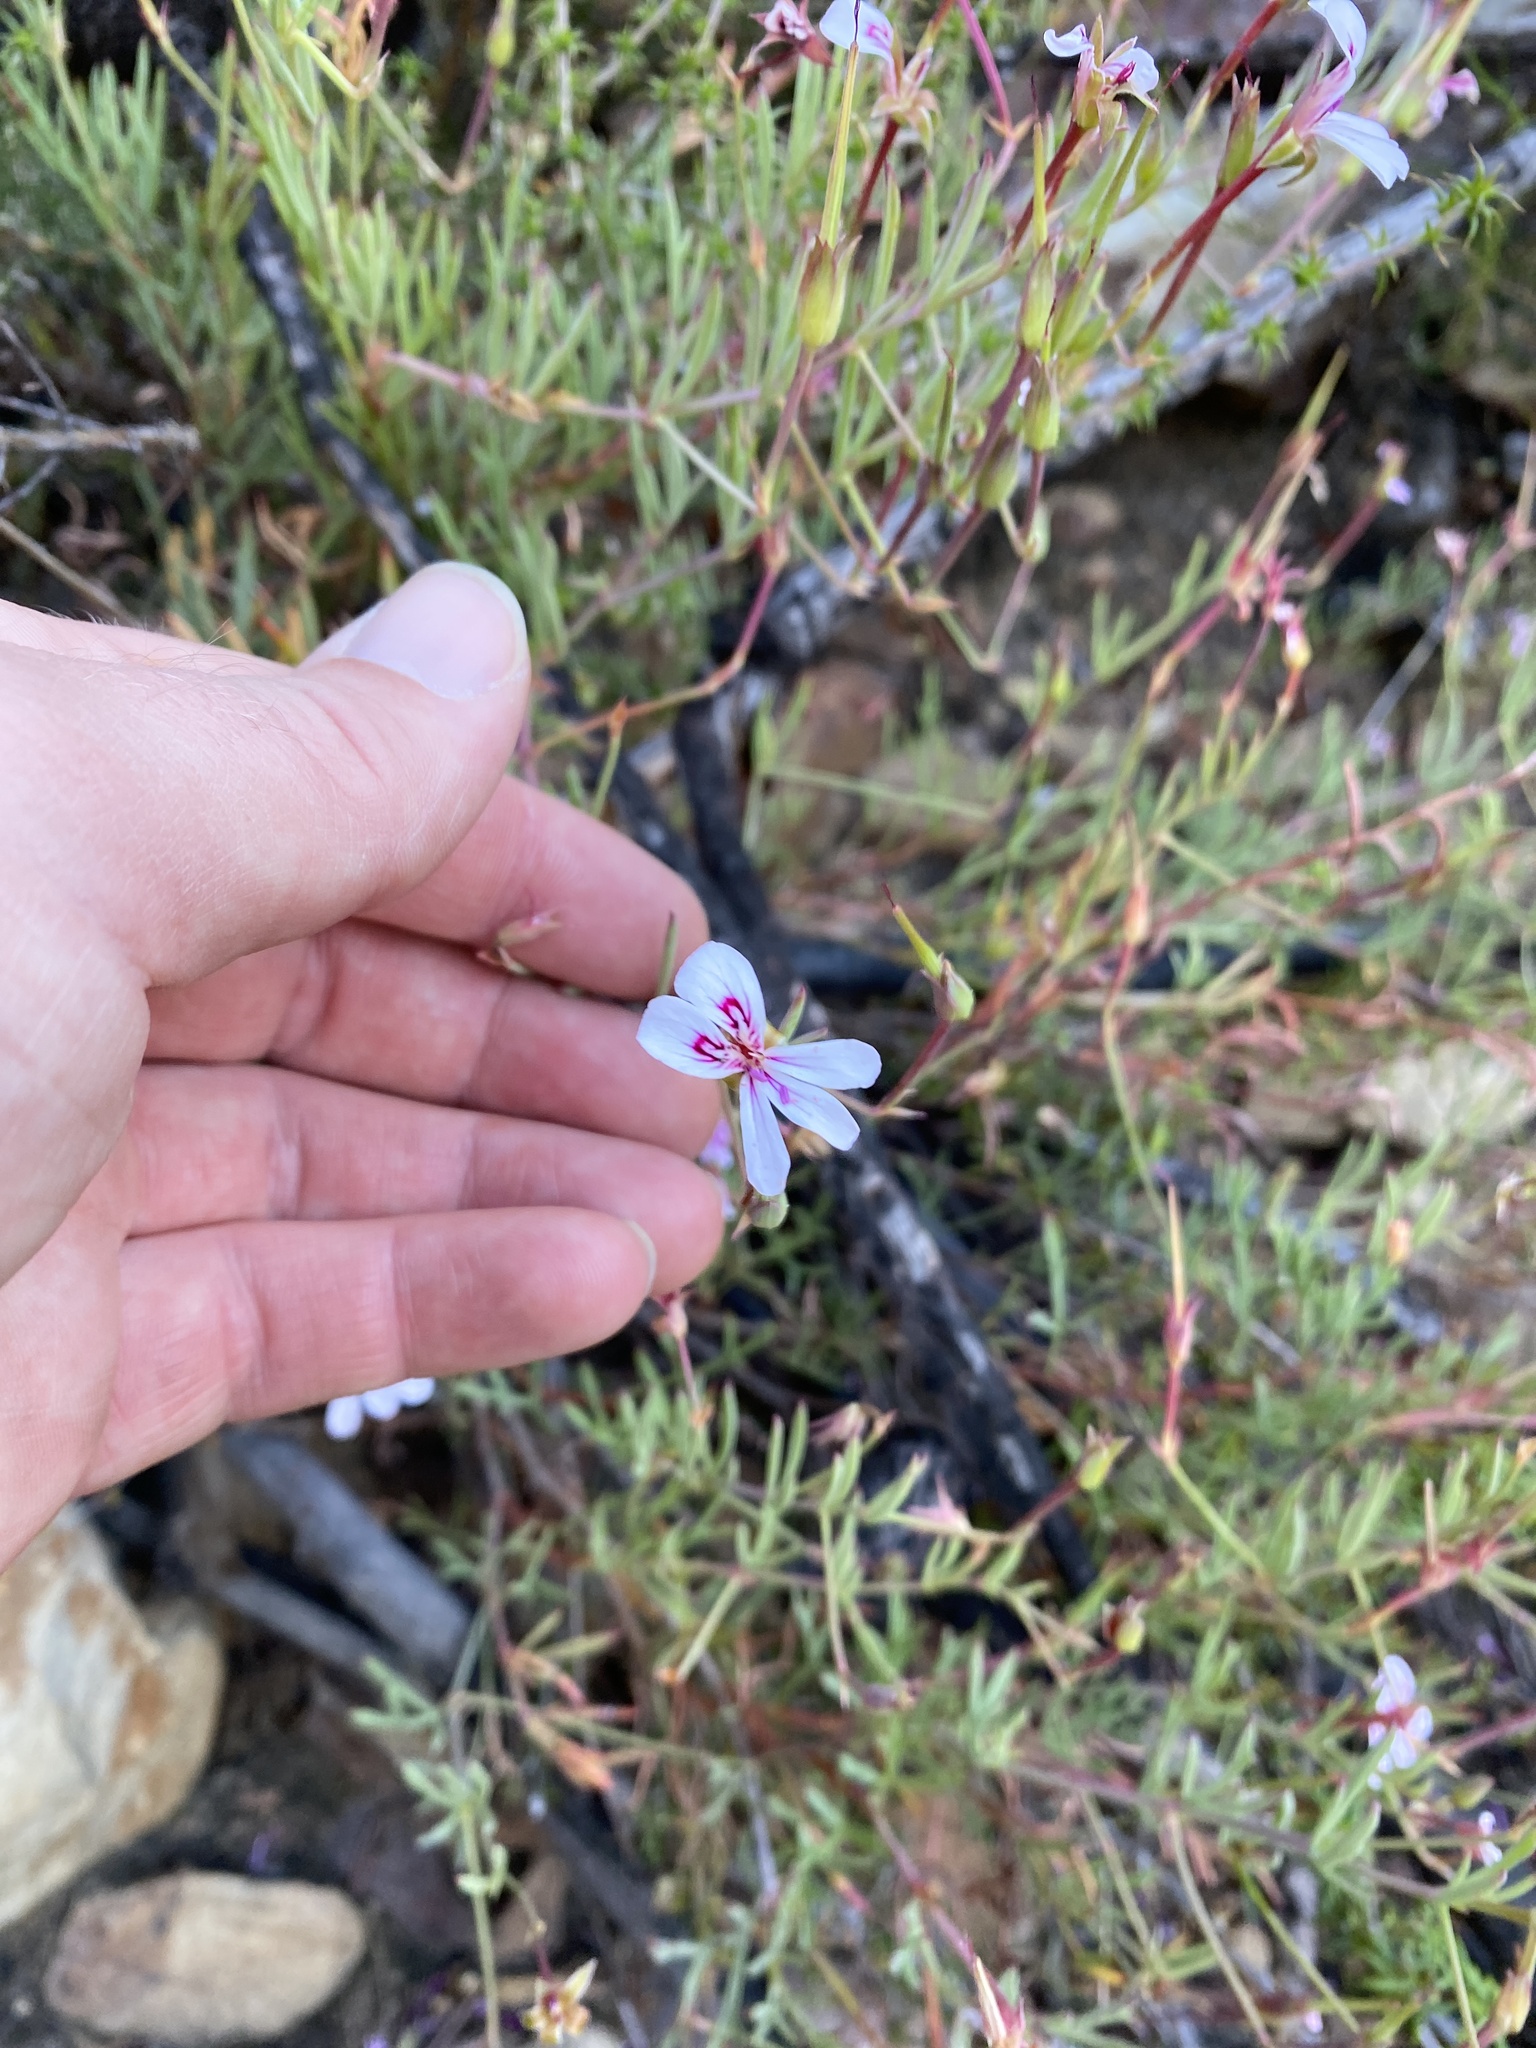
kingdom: Plantae
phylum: Tracheophyta
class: Magnoliopsida
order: Geraniales
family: Geraniaceae
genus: Pelargonium
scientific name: Pelargonium laevigatum
